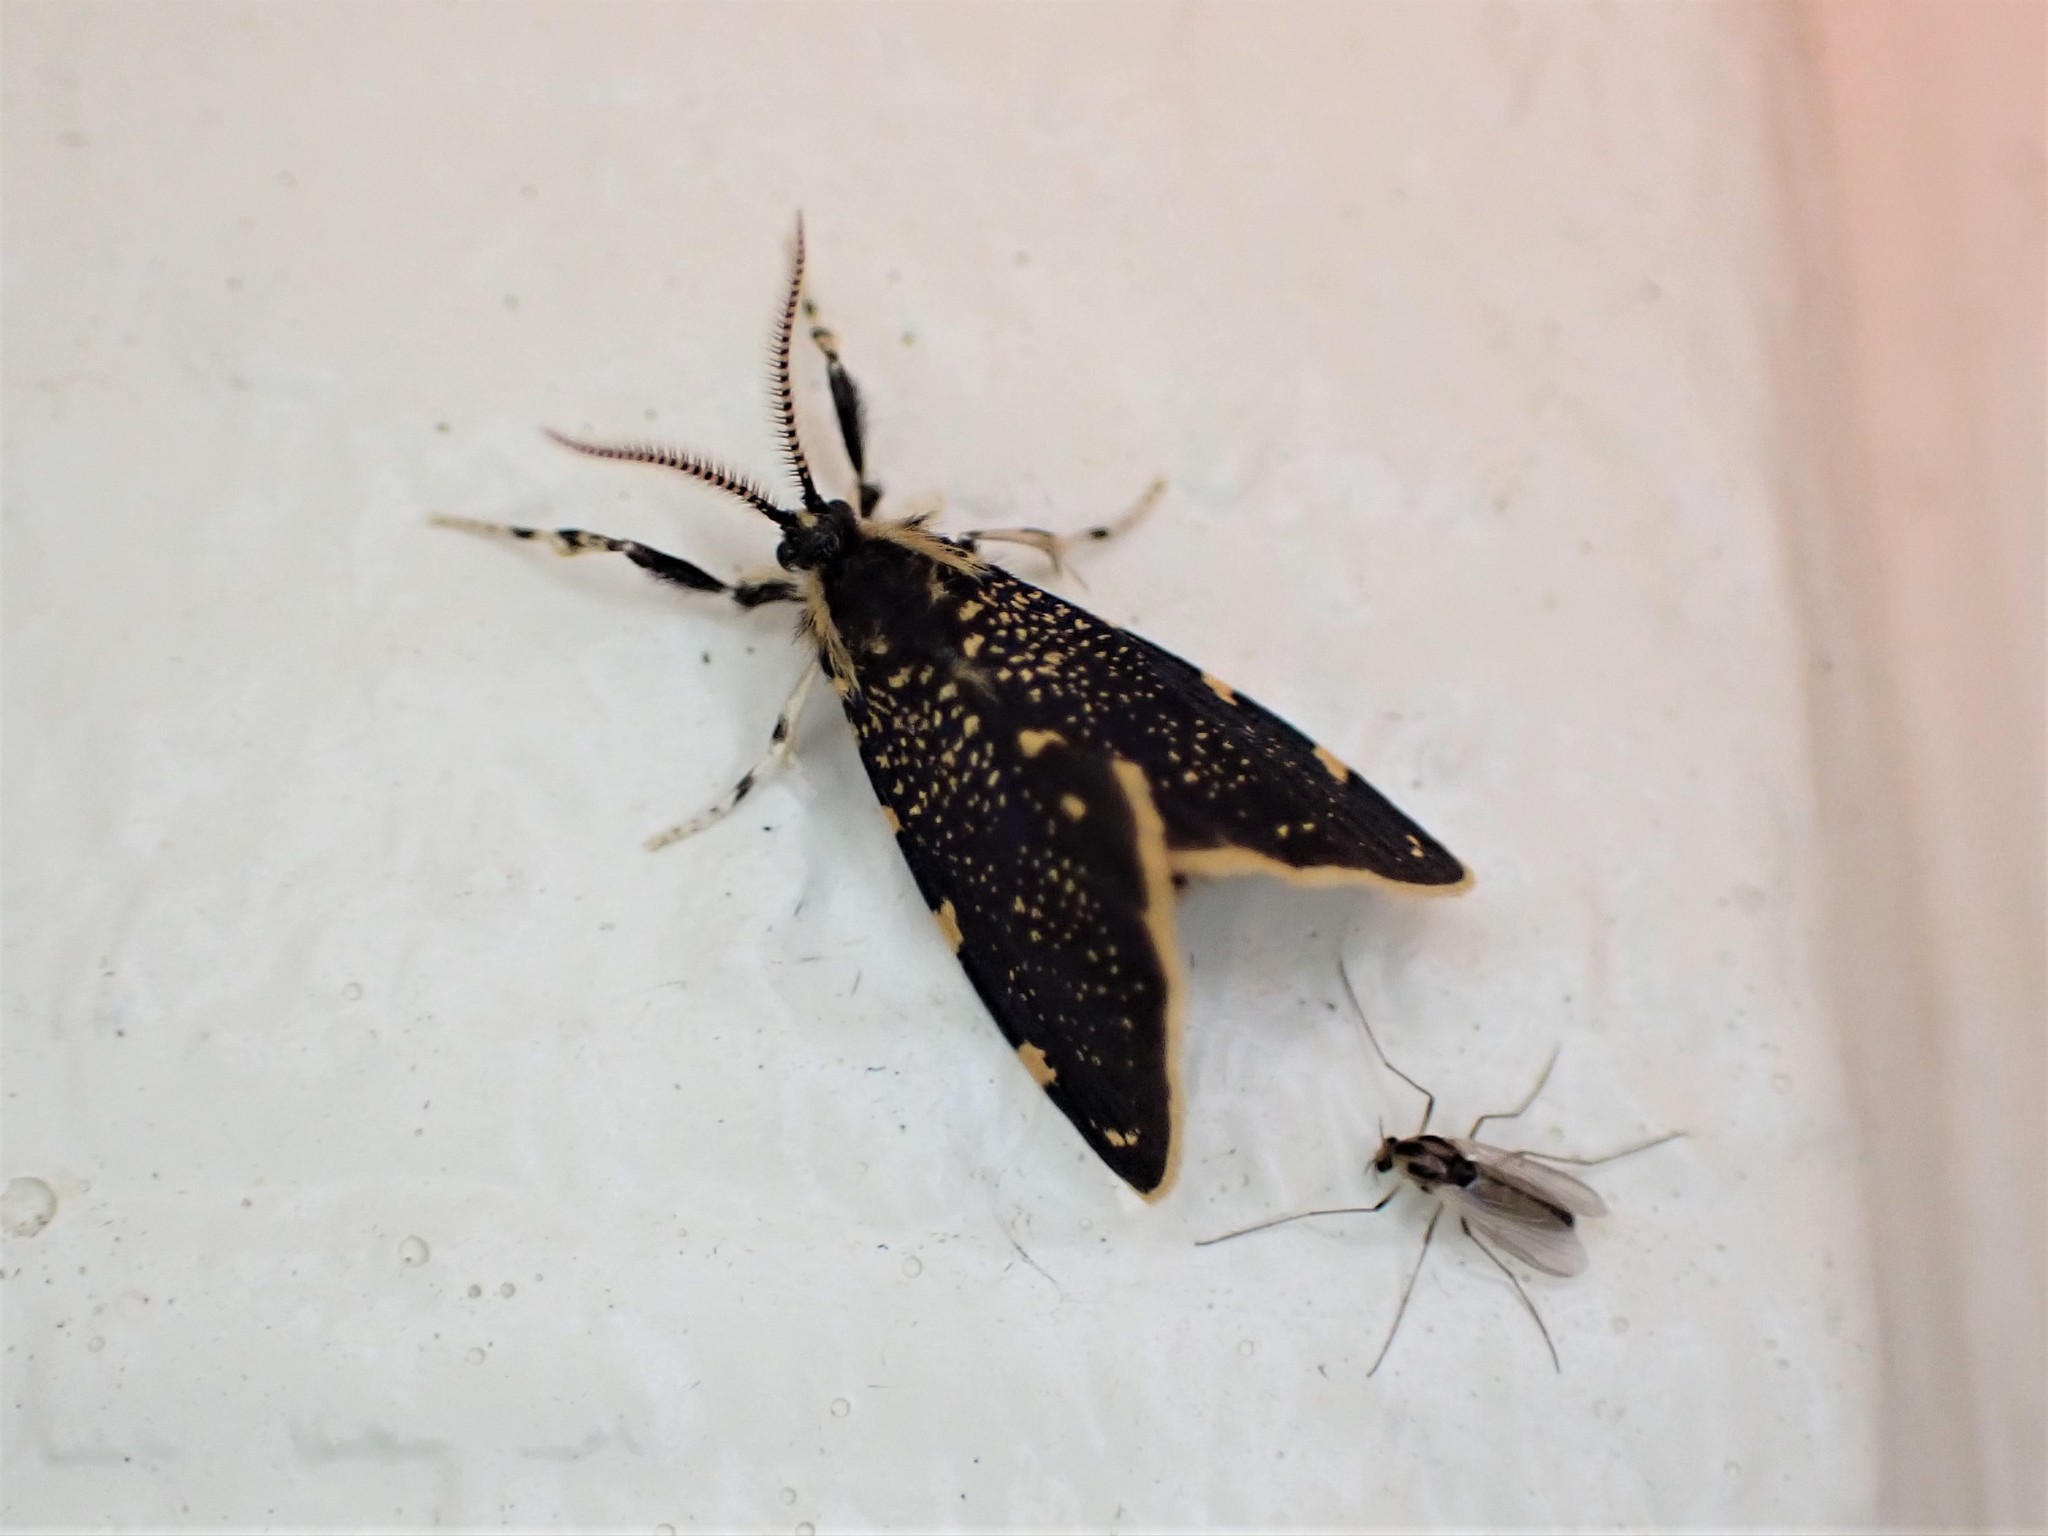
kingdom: Animalia
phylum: Arthropoda
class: Insecta
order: Lepidoptera
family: Psychidae
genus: Cebysa
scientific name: Cebysa leucotelus
